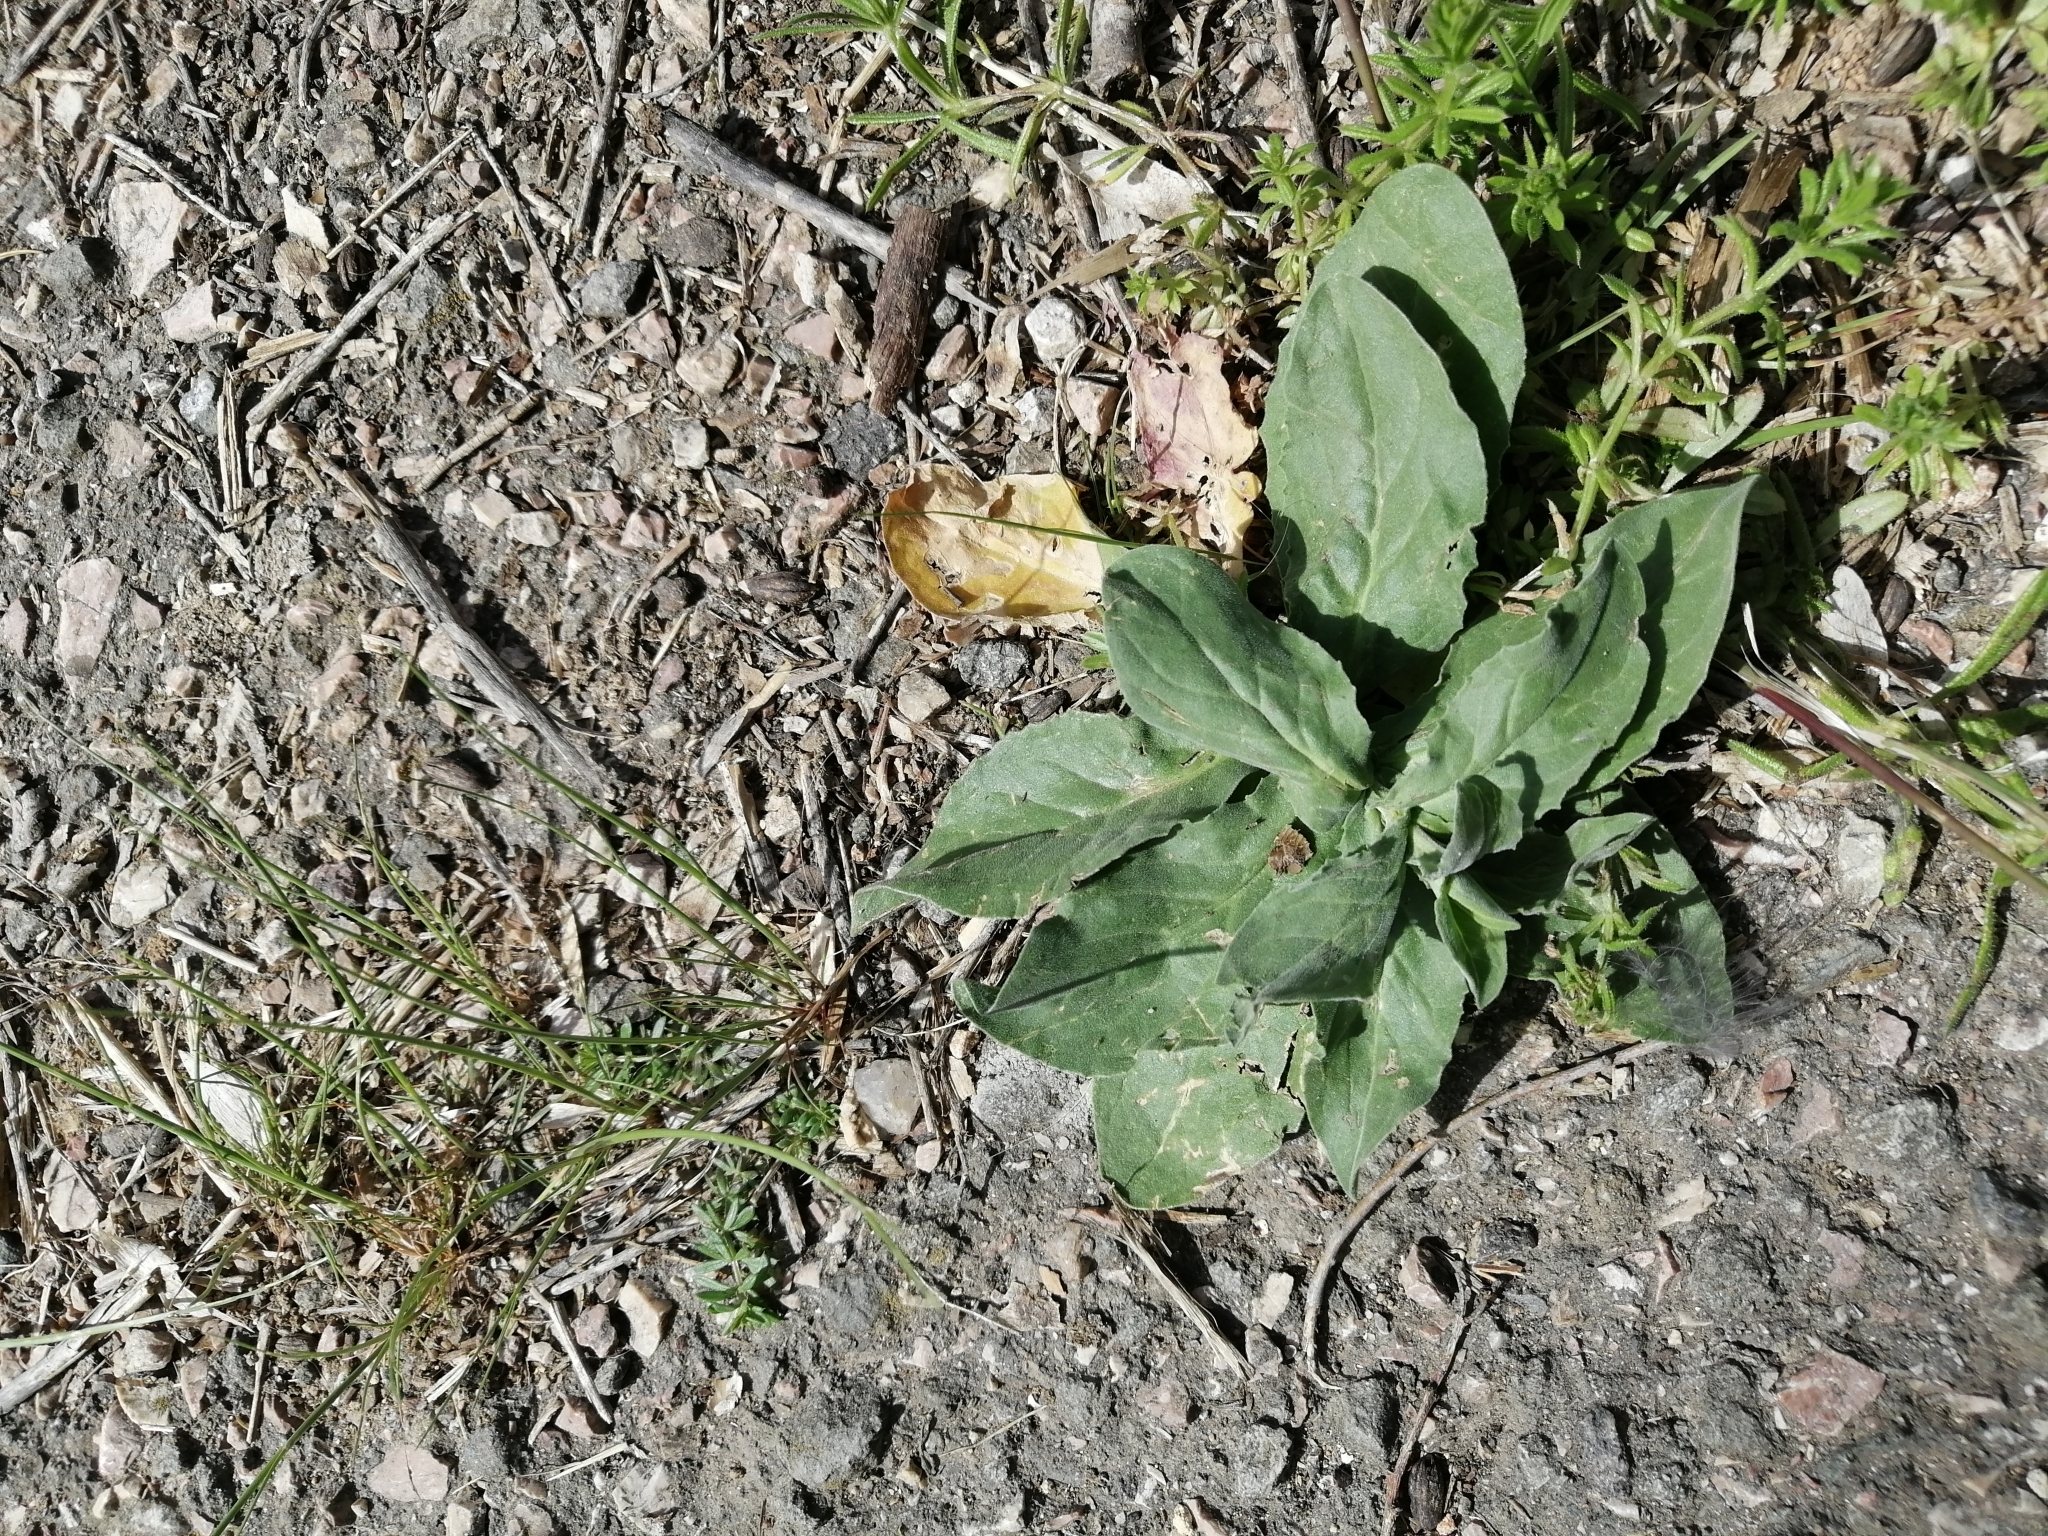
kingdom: Plantae
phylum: Tracheophyta
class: Magnoliopsida
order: Brassicales
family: Brassicaceae
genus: Lepidium
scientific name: Lepidium draba
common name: Hoary cress
